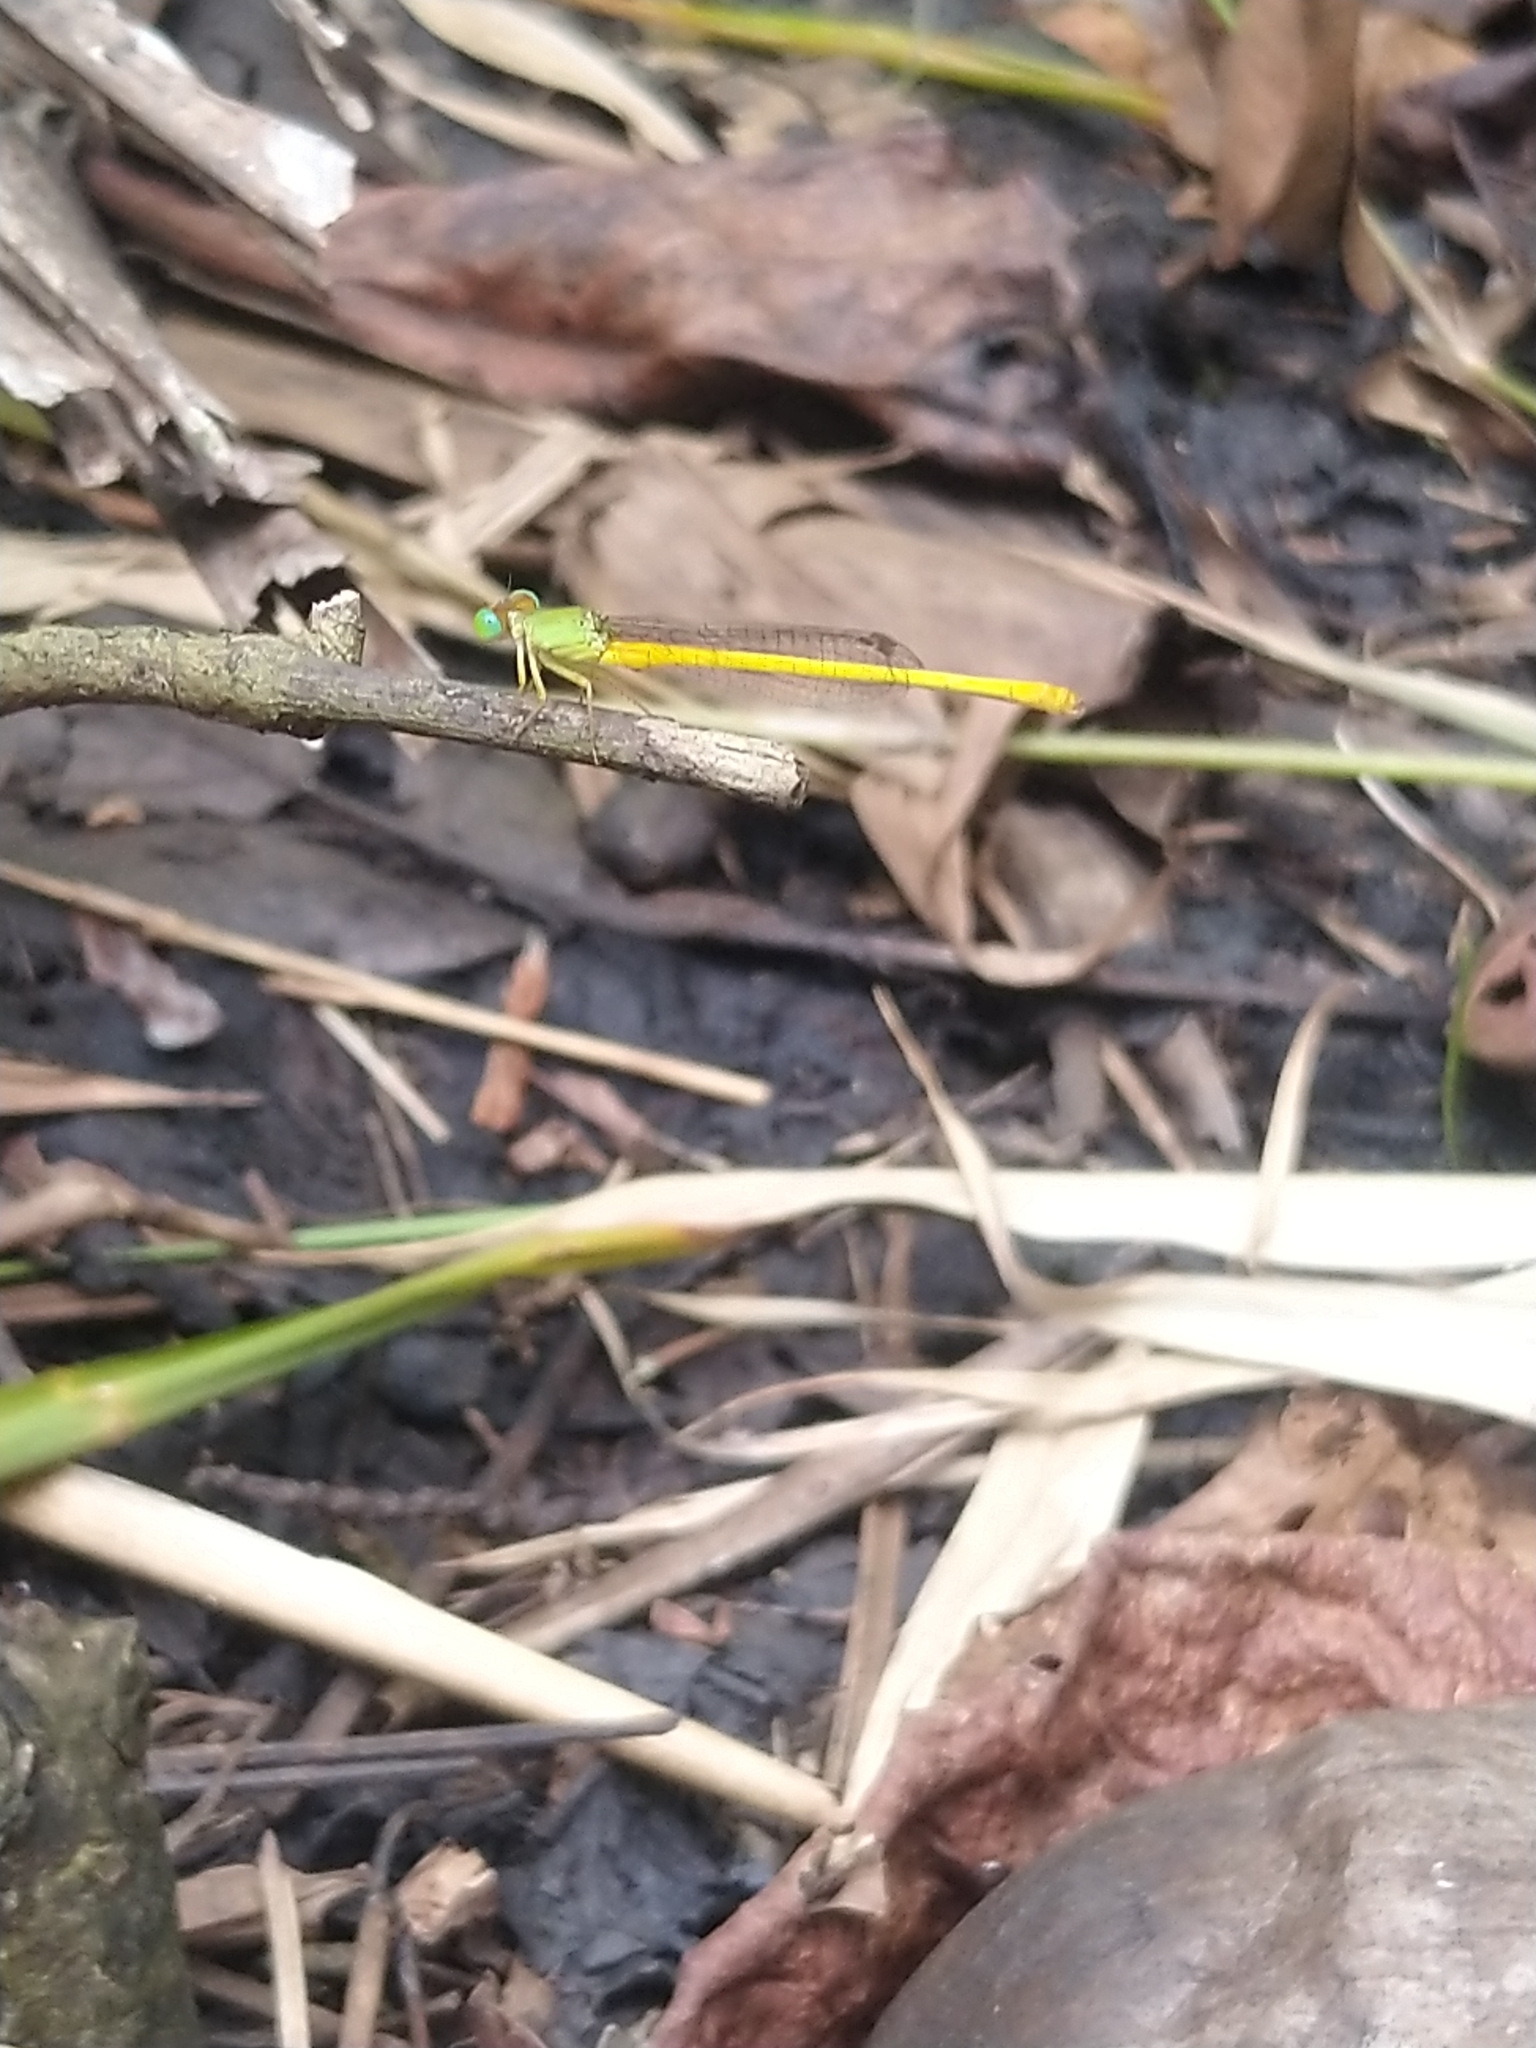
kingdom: Animalia
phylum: Arthropoda
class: Insecta
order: Odonata
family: Coenagrionidae
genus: Ceriagrion
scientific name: Ceriagrion coromandelianum
